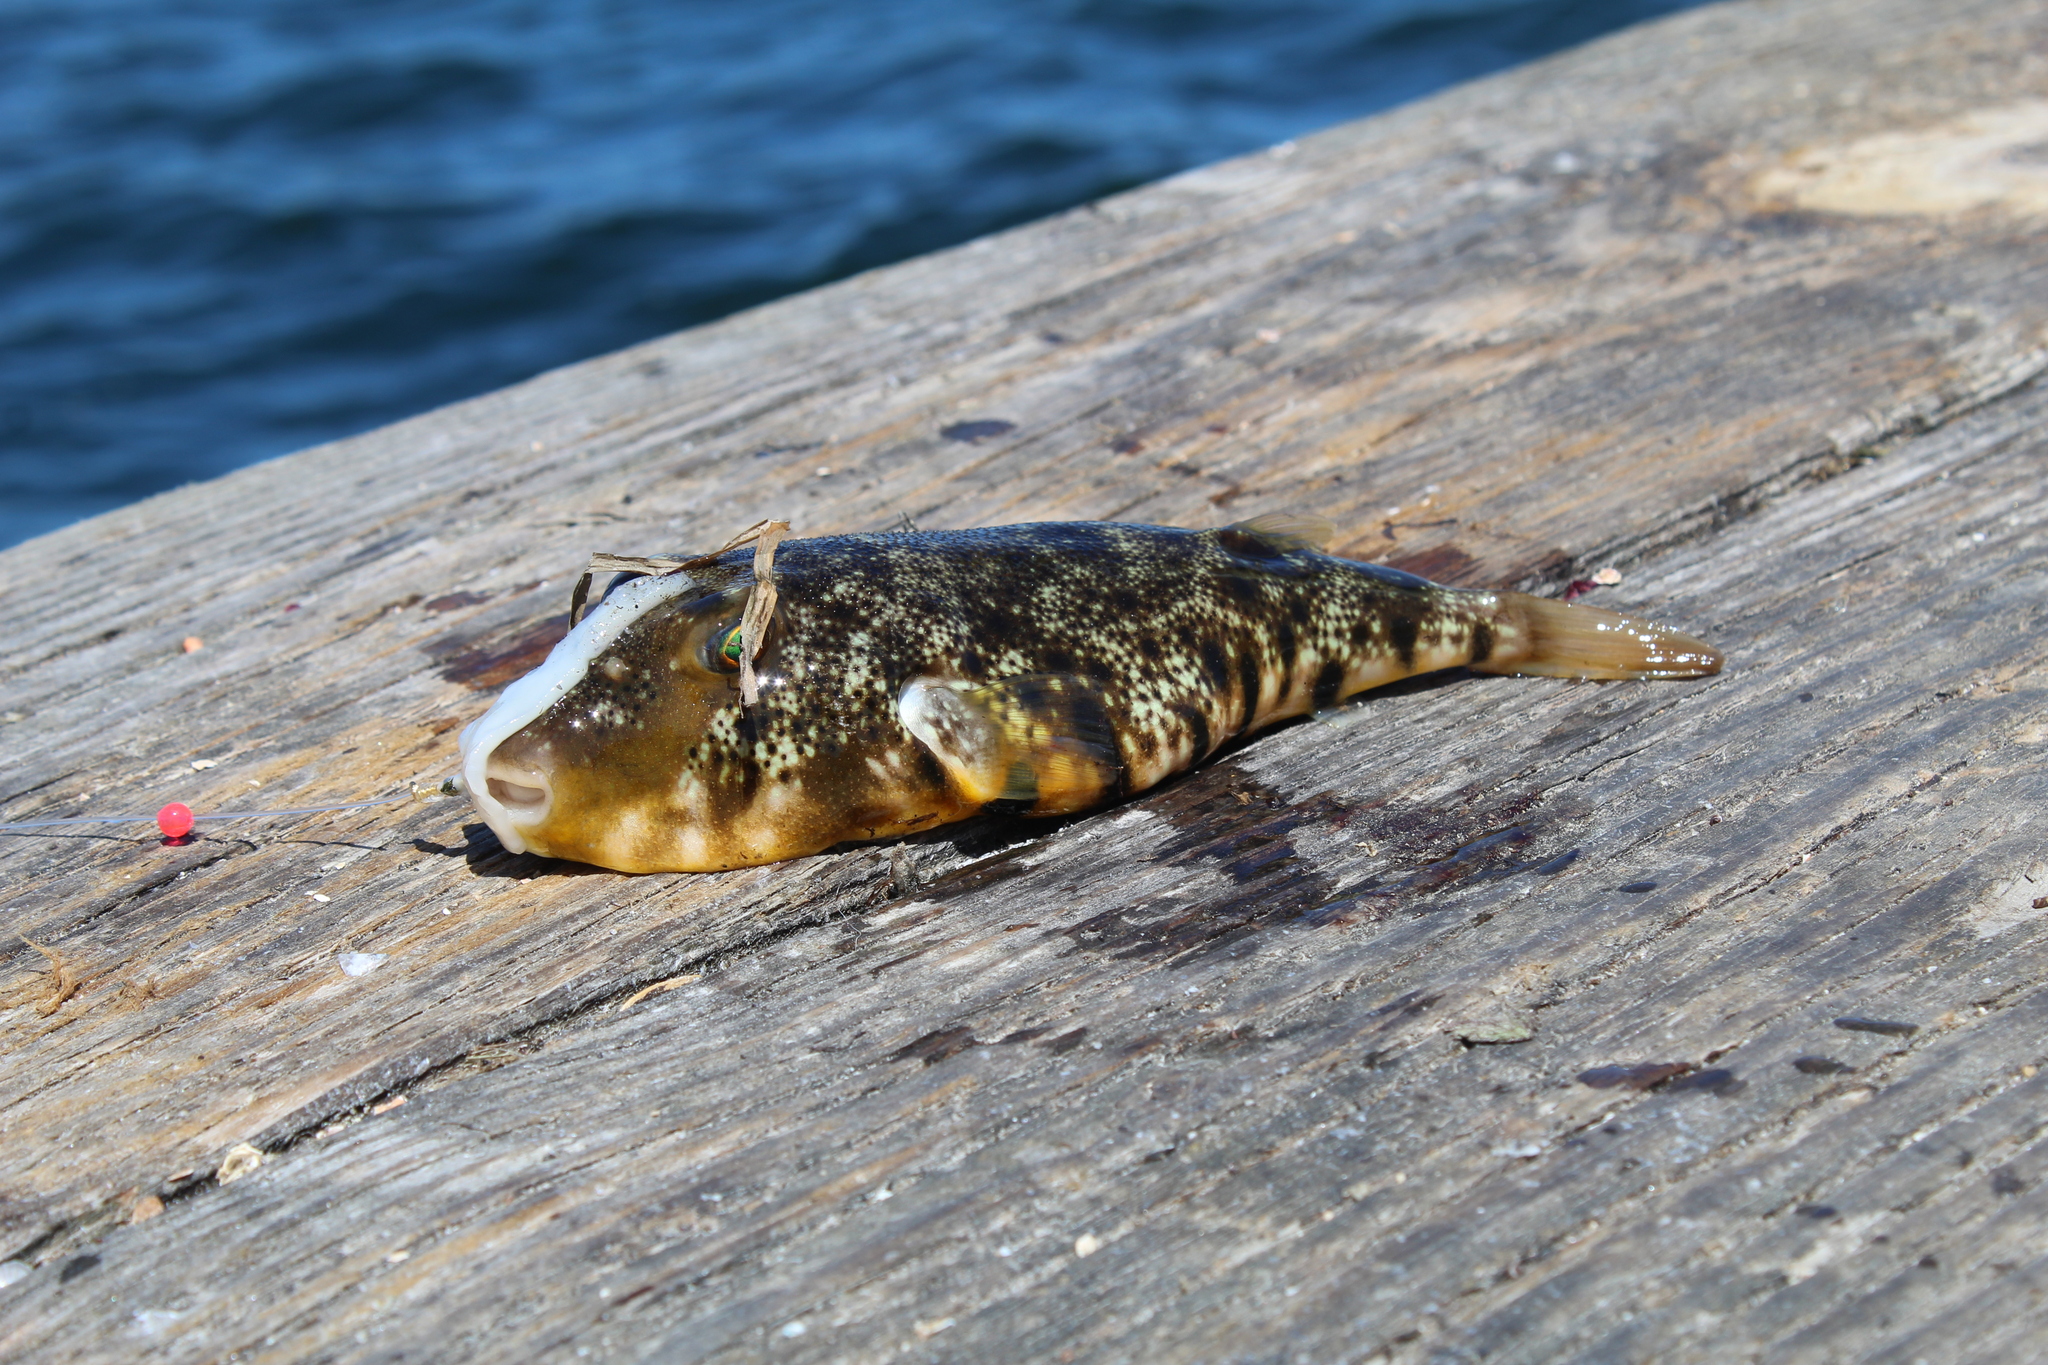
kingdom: Animalia
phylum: Chordata
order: Tetraodontiformes
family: Tetraodontidae
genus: Sphoeroides
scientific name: Sphoeroides maculatus
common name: Northern puffer
